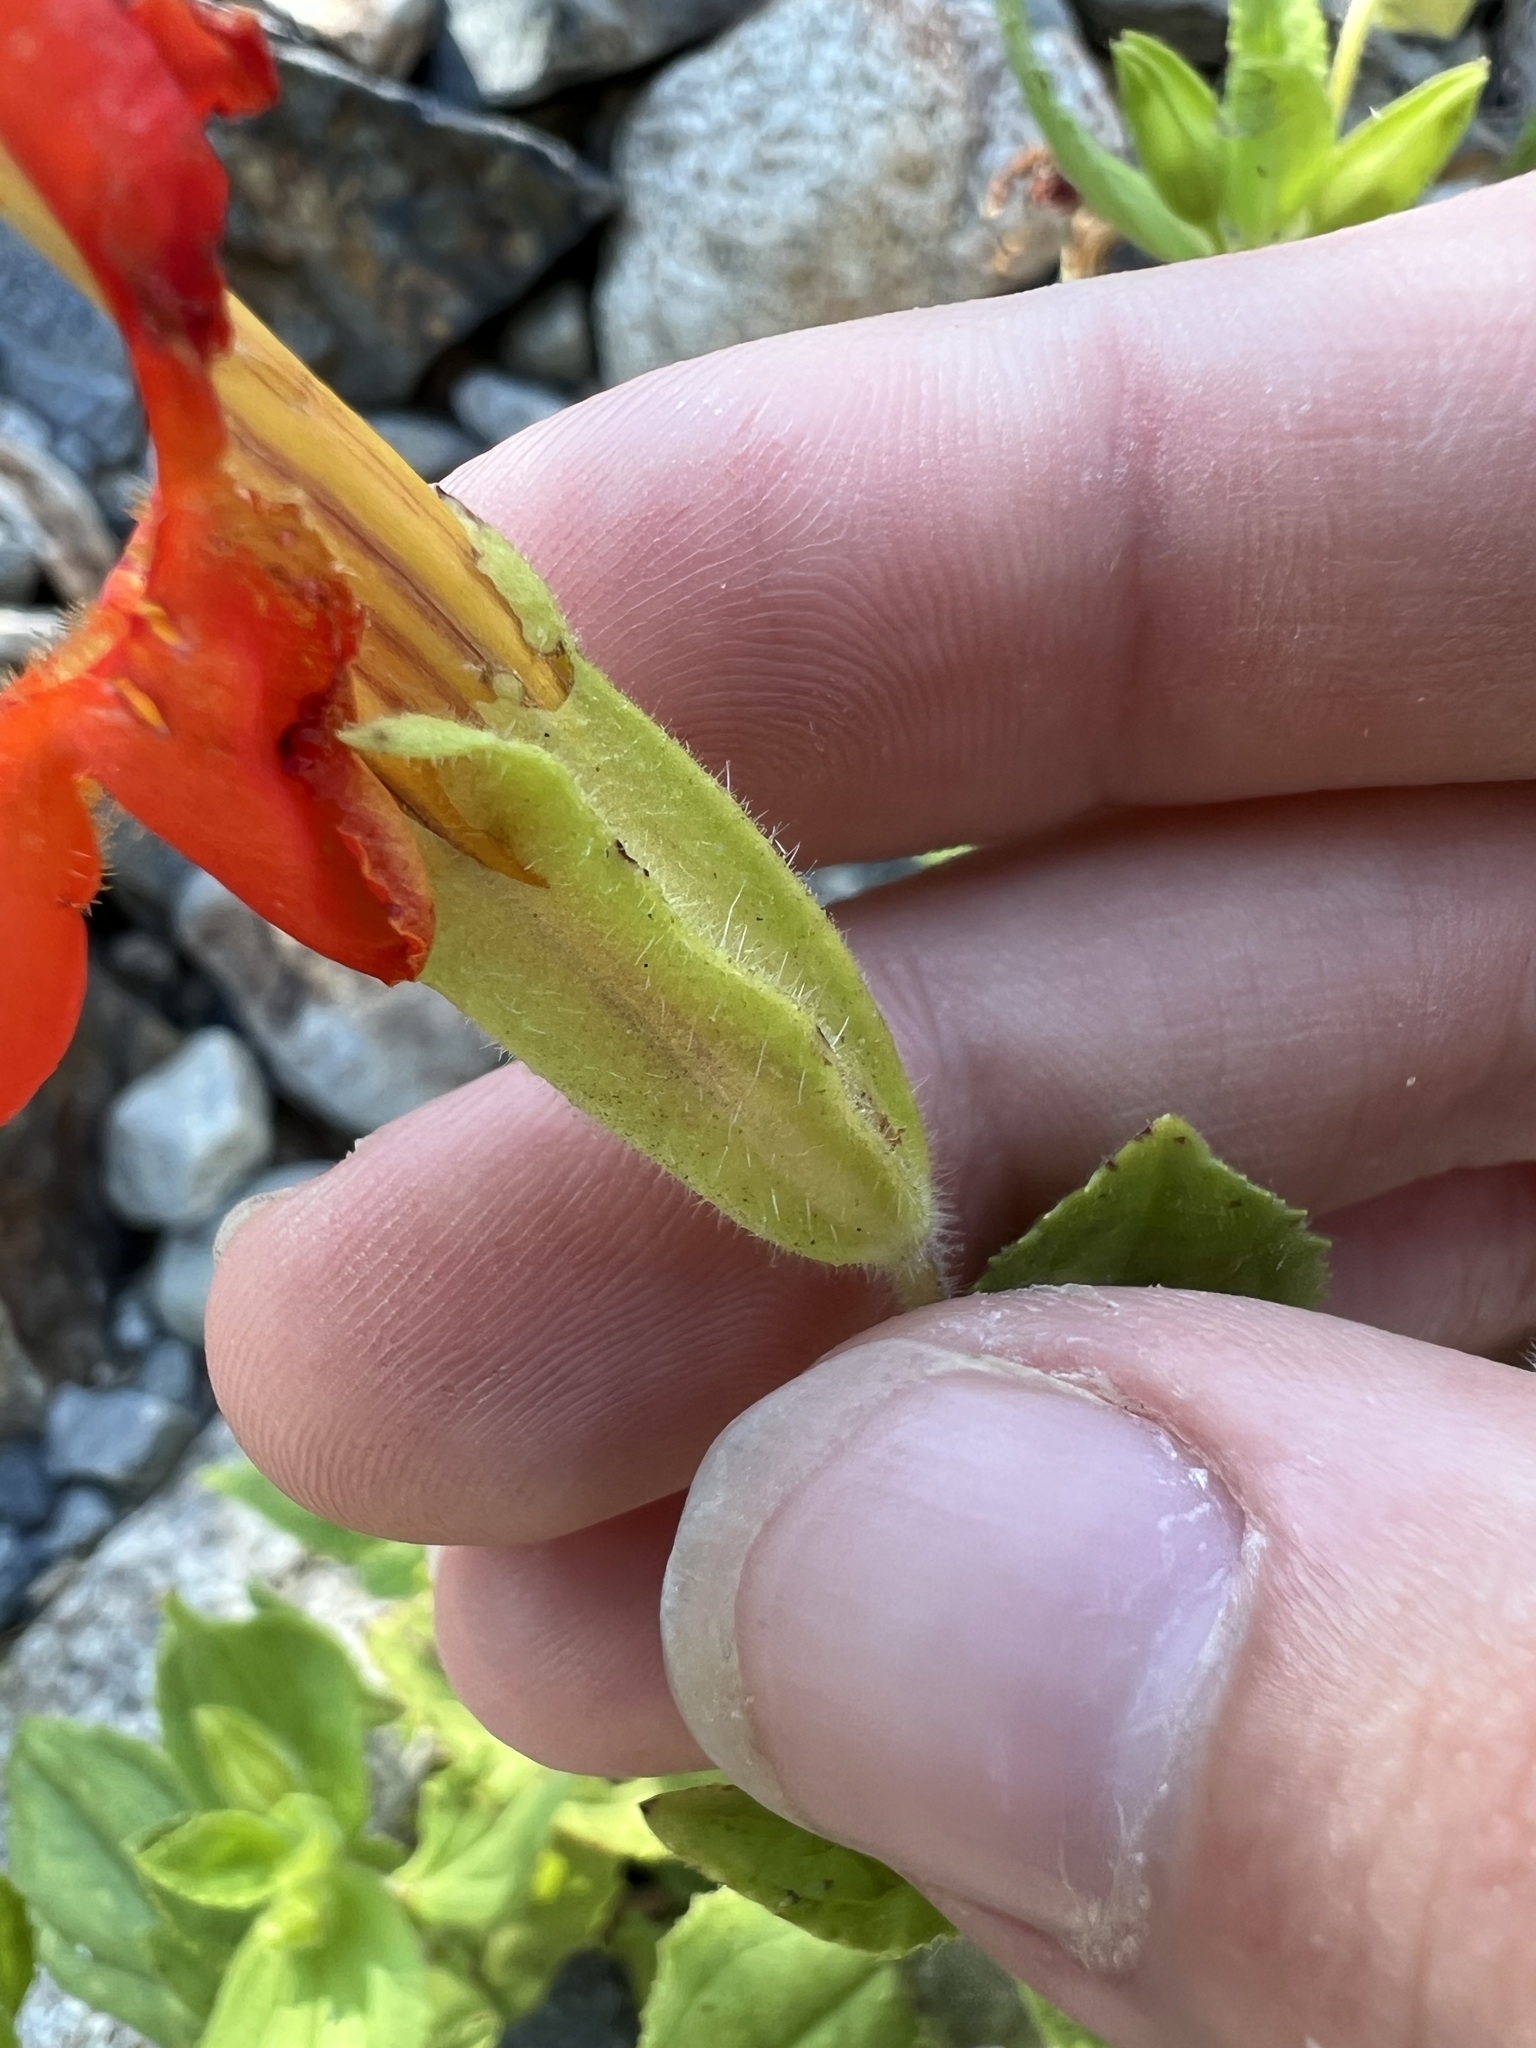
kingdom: Plantae
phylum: Tracheophyta
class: Magnoliopsida
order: Lamiales
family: Phrymaceae
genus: Erythranthe
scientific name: Erythranthe cardinalis
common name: Scarlet monkey-flower
